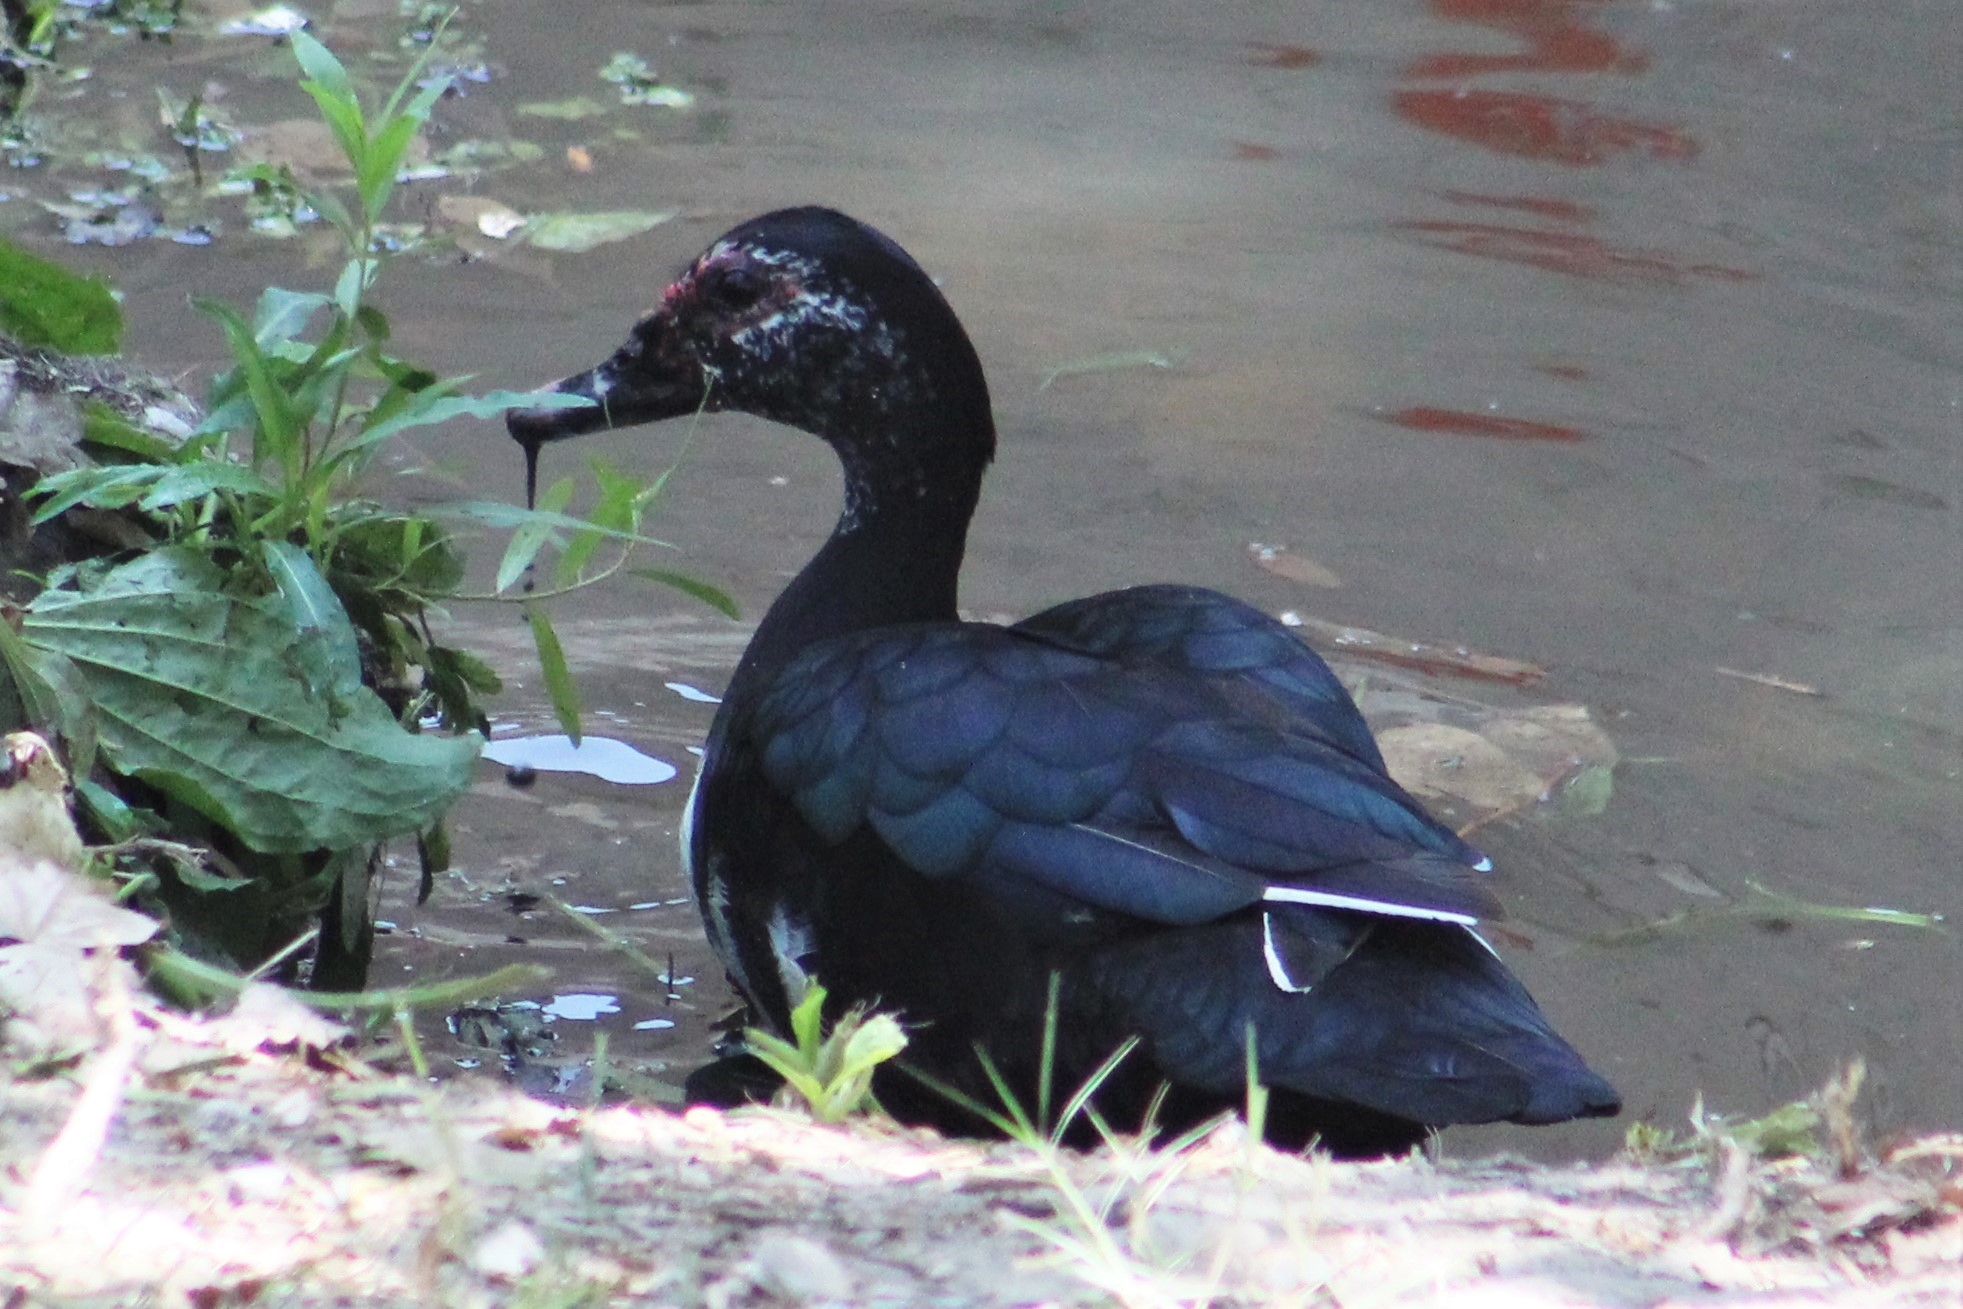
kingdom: Animalia
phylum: Chordata
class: Aves
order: Anseriformes
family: Anatidae
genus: Cairina
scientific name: Cairina moschata
